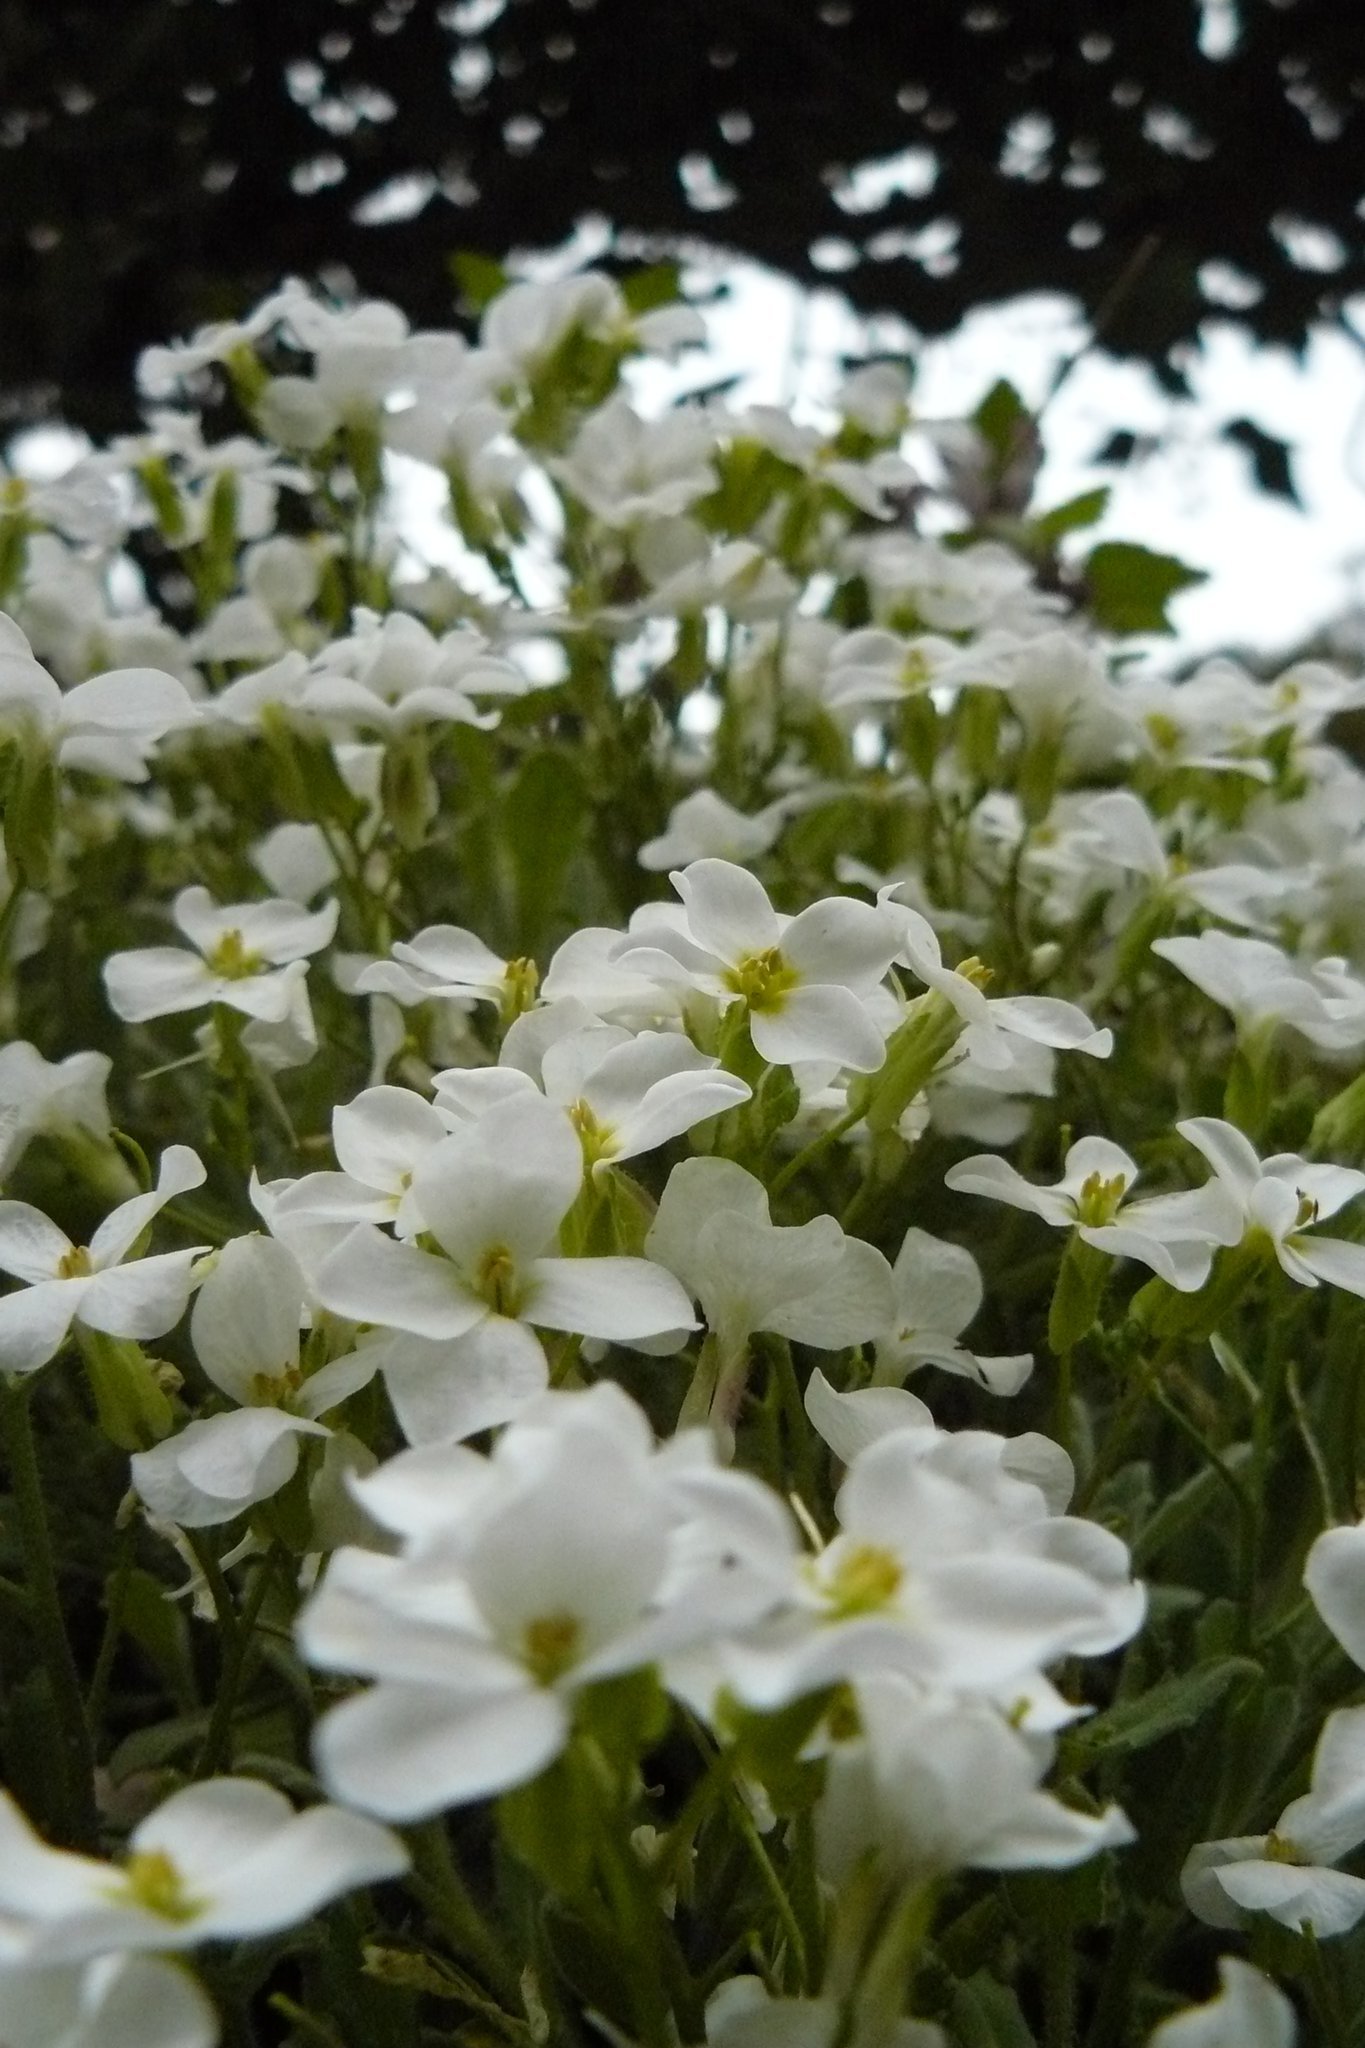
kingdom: Plantae
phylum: Tracheophyta
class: Magnoliopsida
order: Brassicales
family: Brassicaceae
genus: Arabis
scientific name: Arabis caucasica
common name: Gray rockcress
